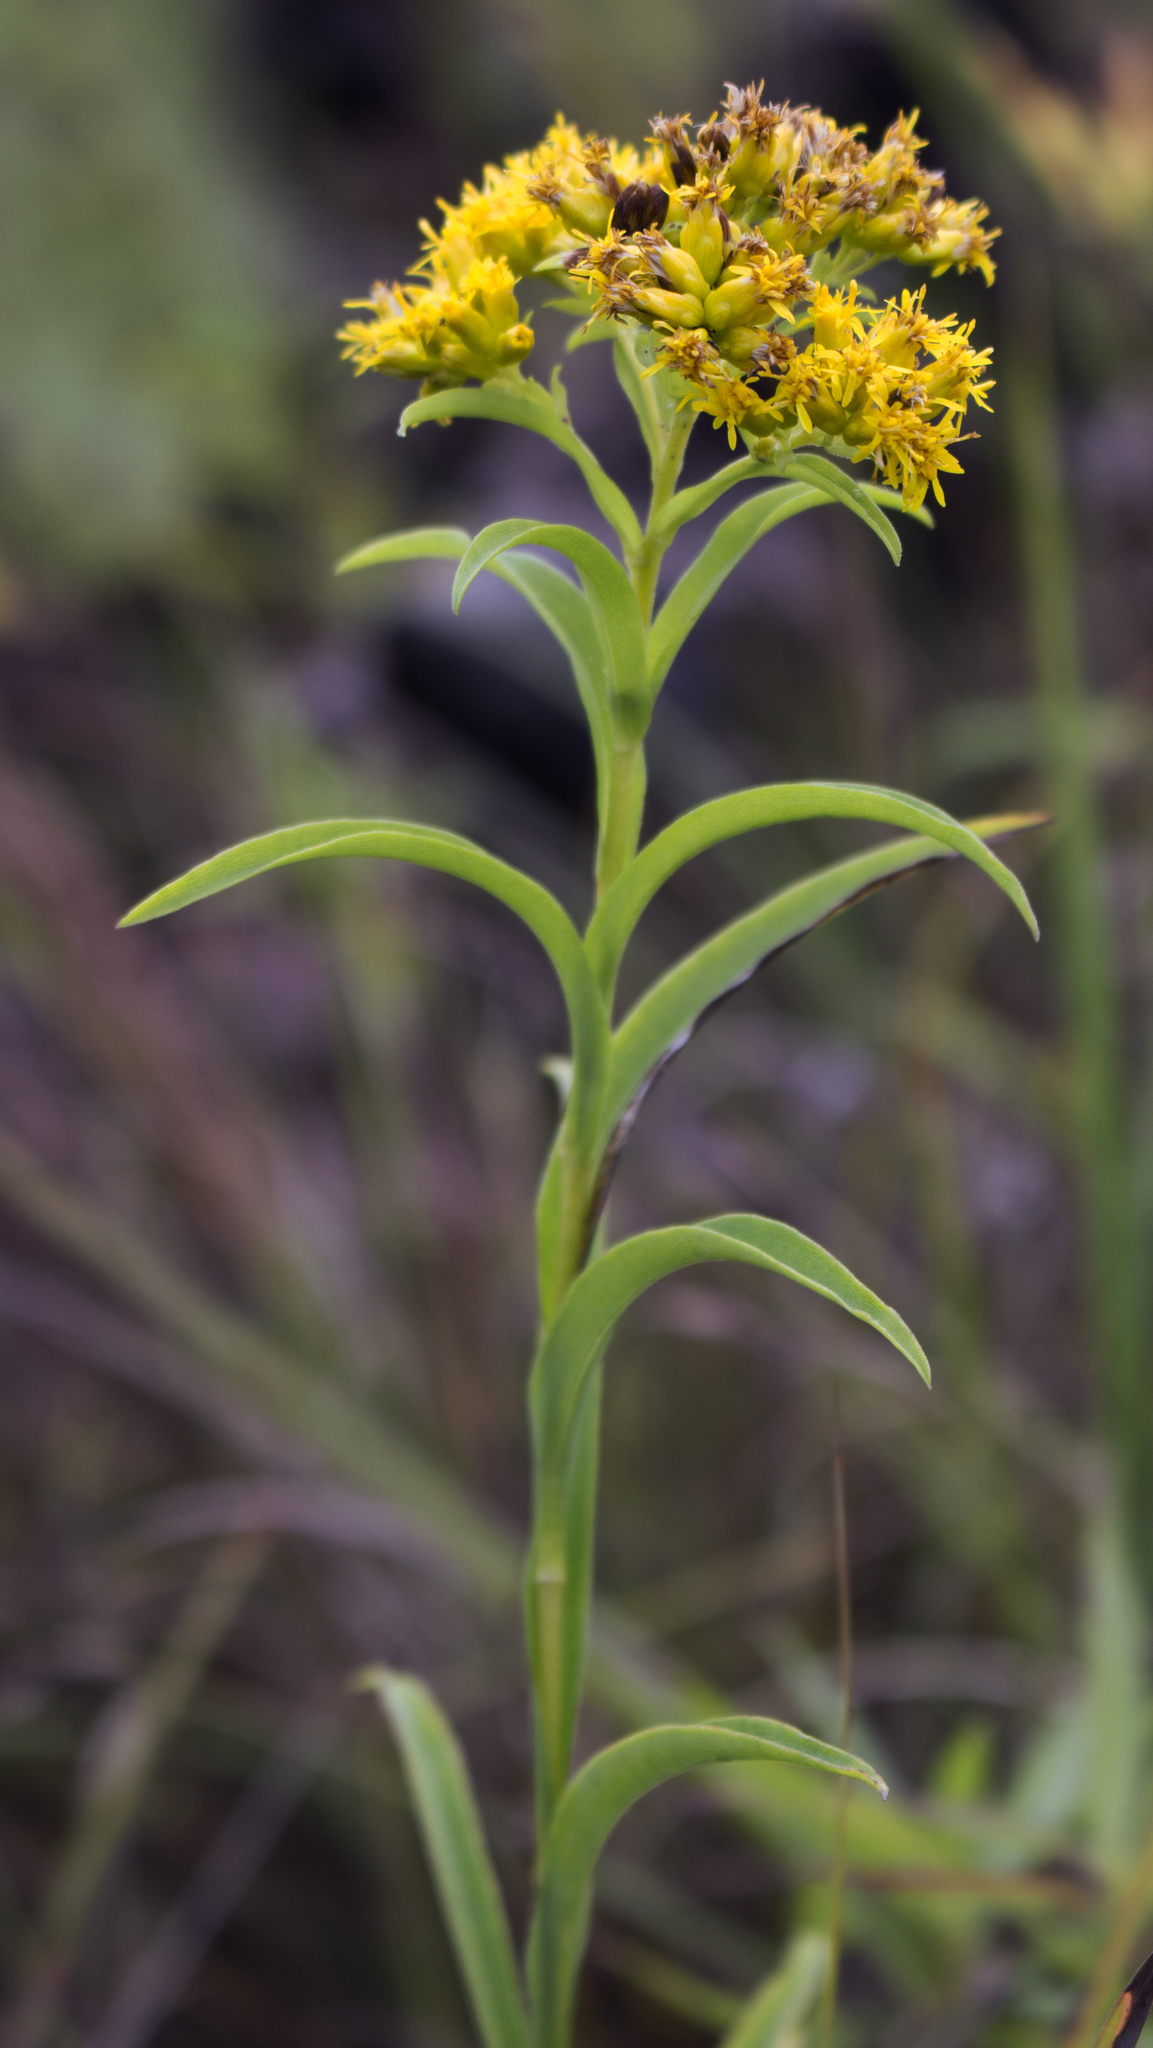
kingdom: Plantae
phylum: Tracheophyta
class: Magnoliopsida
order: Asterales
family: Asteraceae
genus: Solidago
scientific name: Solidago riddellii
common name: Riddell's goldenrod
